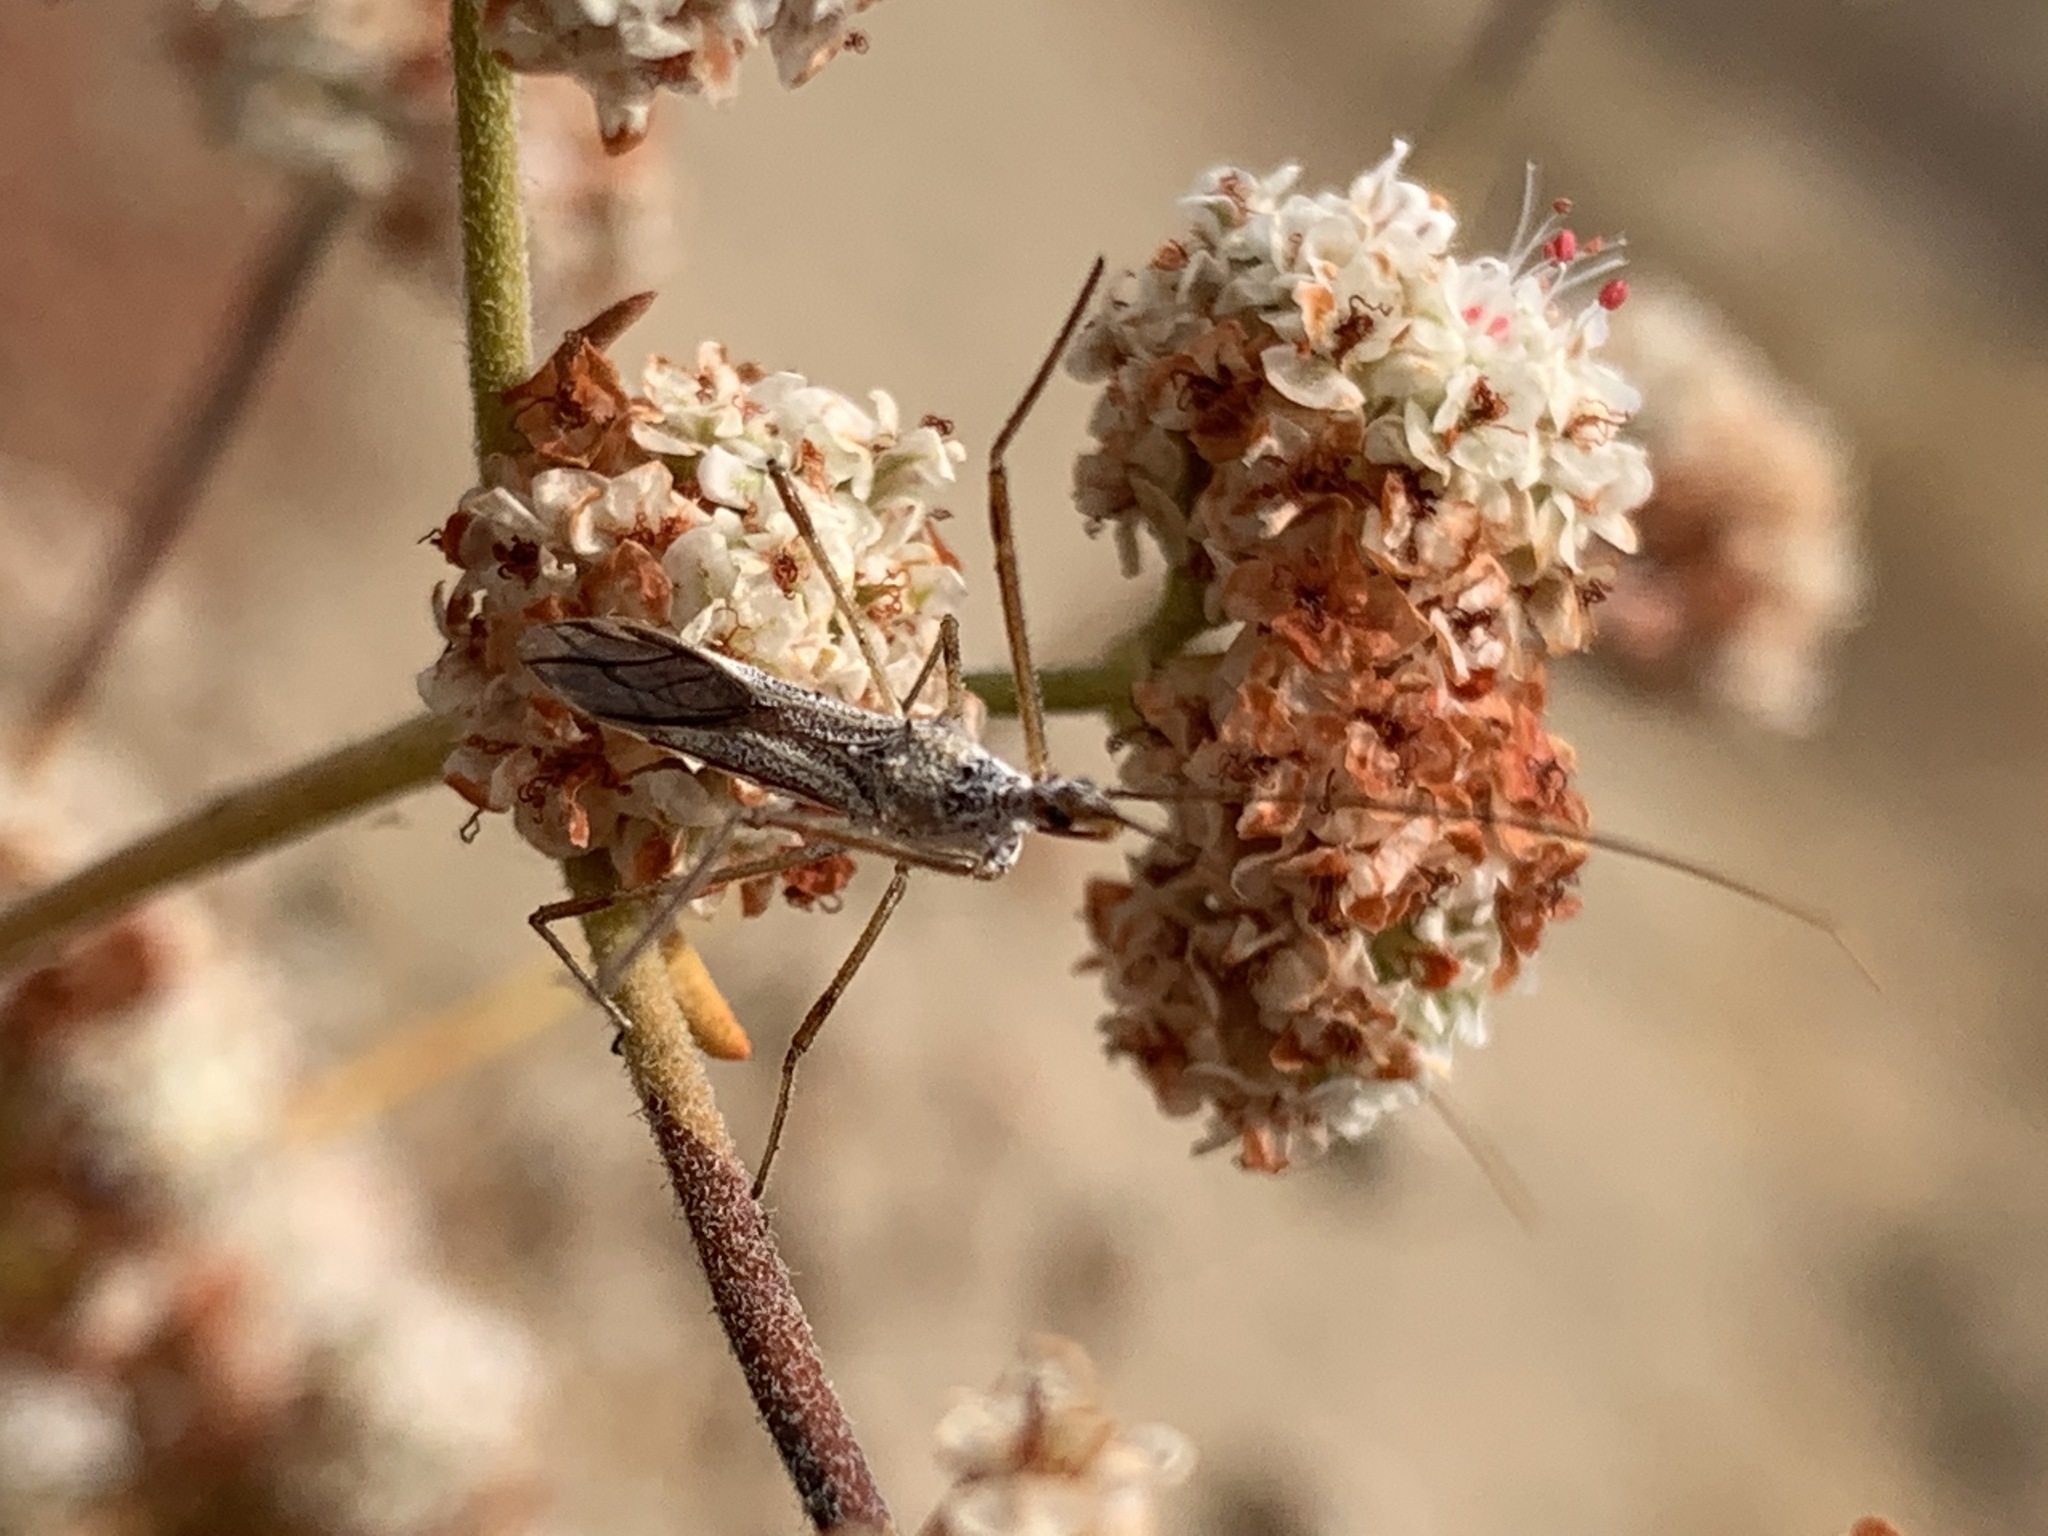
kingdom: Animalia
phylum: Arthropoda
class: Insecta
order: Hemiptera
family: Reduviidae
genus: Zelus
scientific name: Zelus tetracanthus
